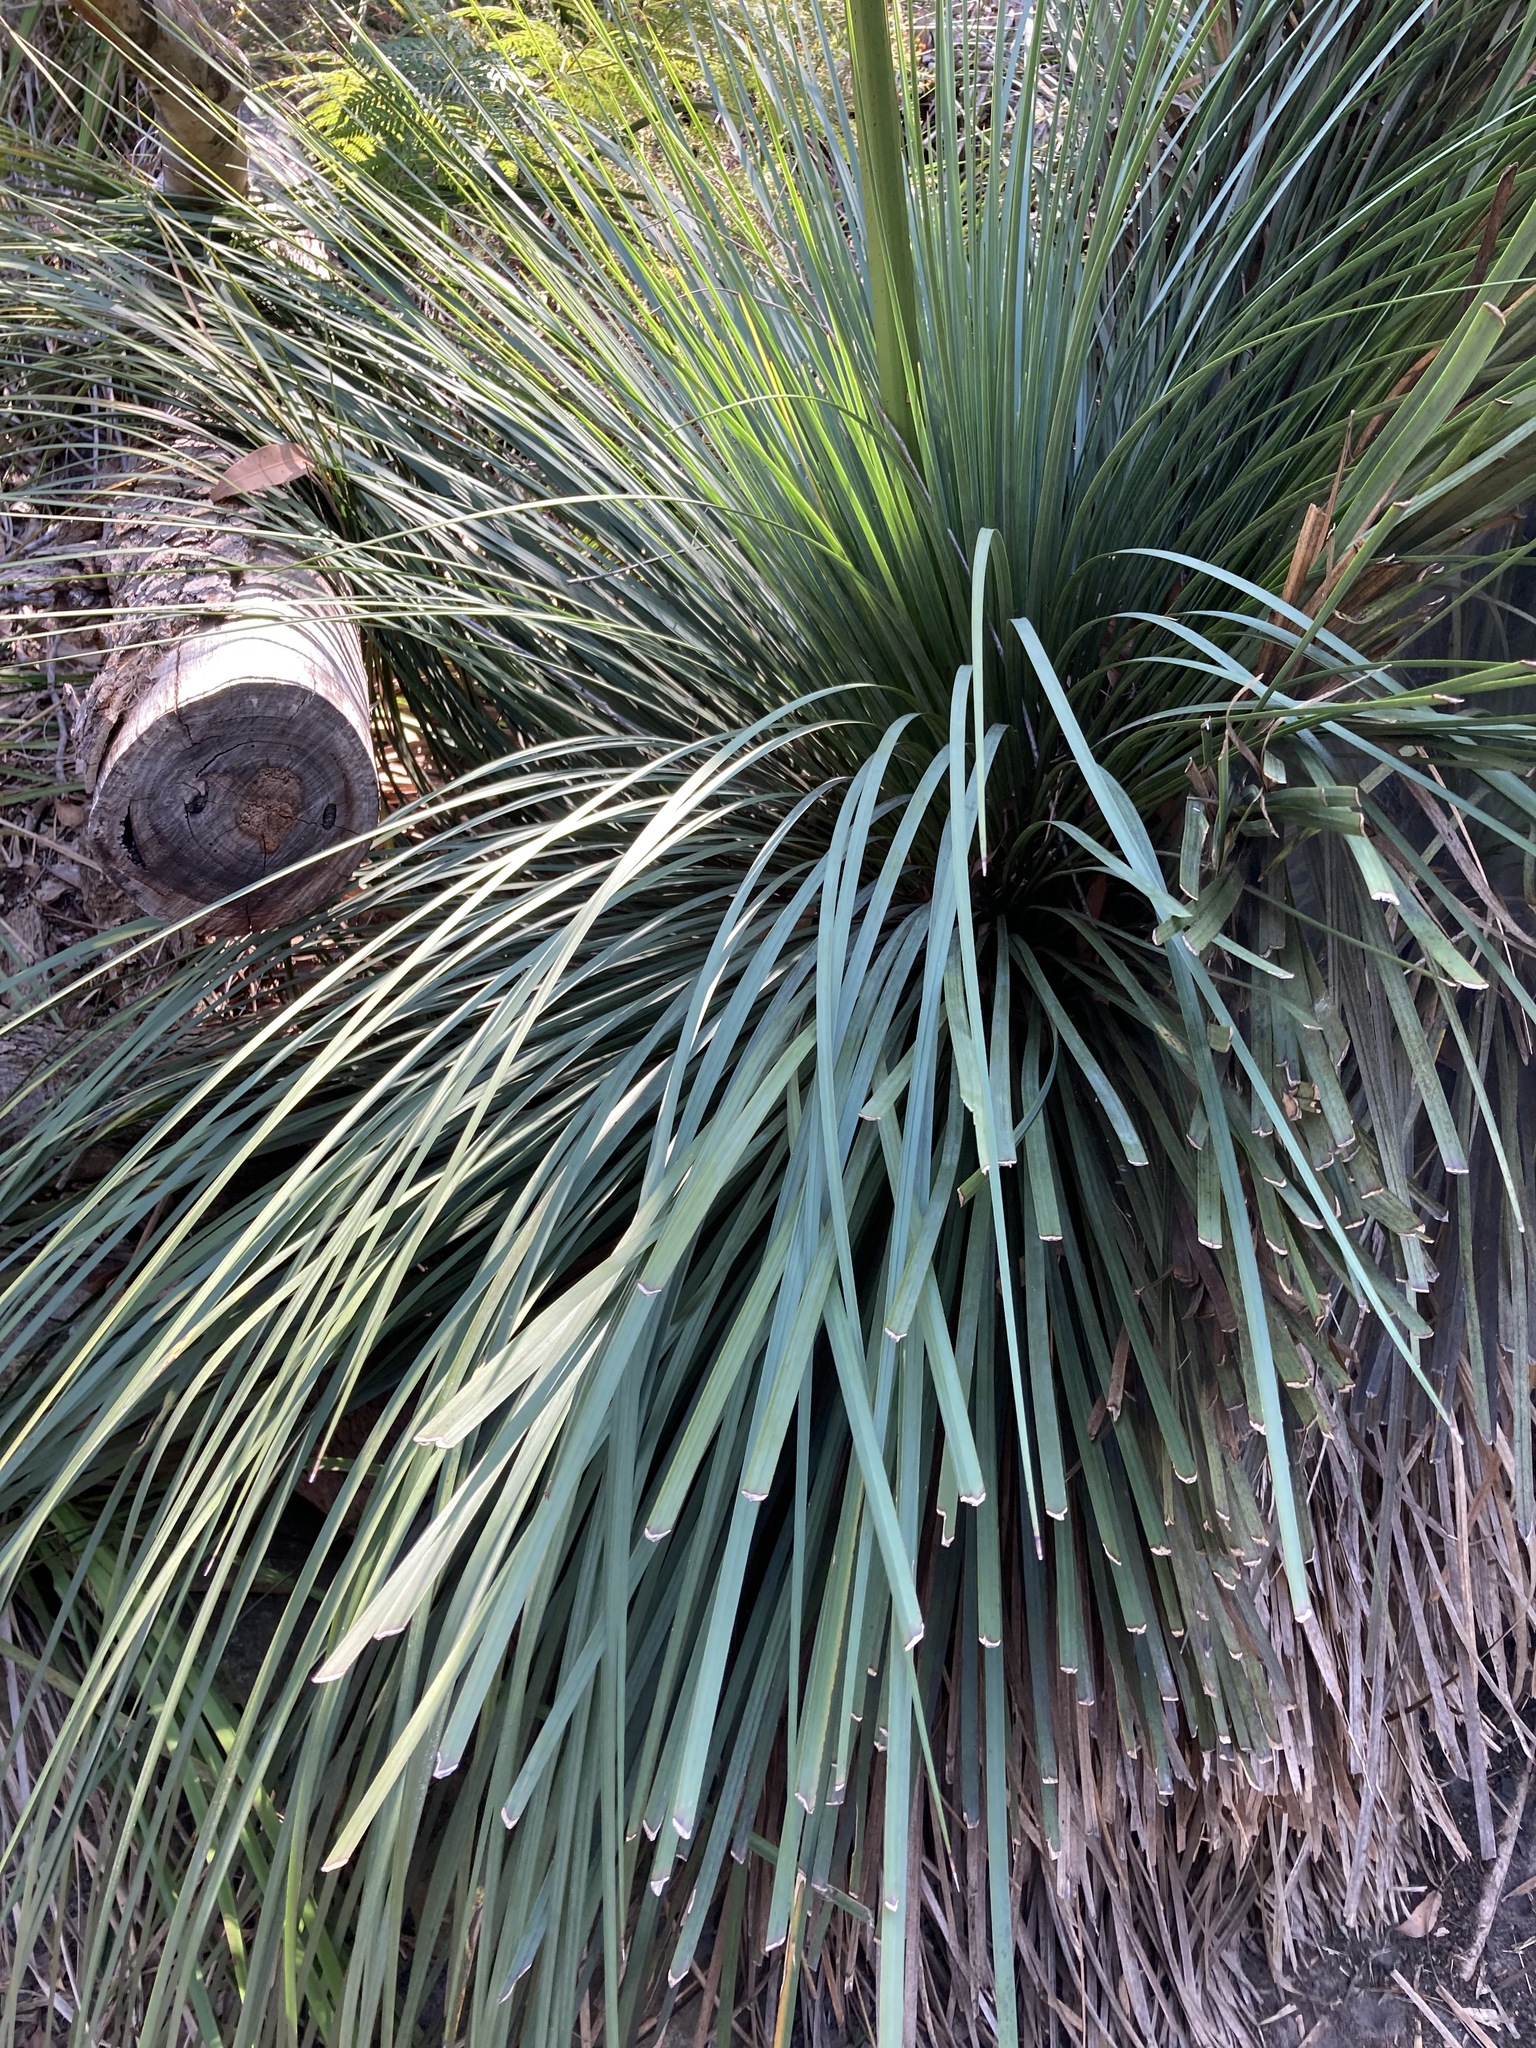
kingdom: Plantae
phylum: Tracheophyta
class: Liliopsida
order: Asparagales
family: Asphodelaceae
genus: Xanthorrhoea
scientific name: Xanthorrhoea arborea
